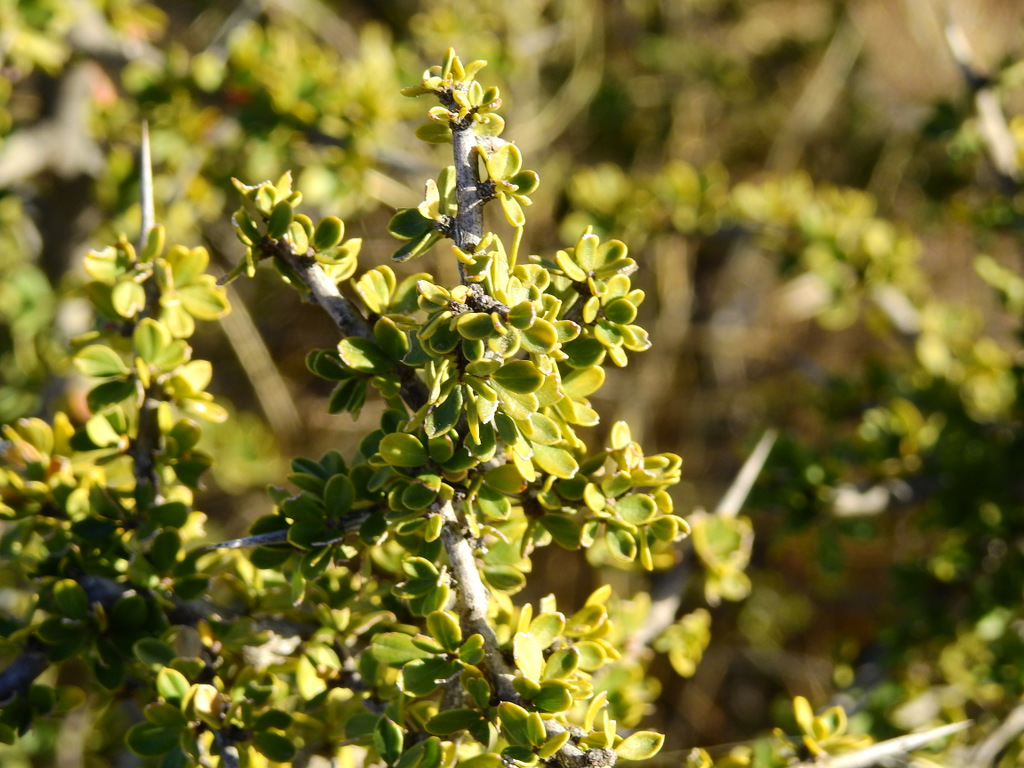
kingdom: Plantae
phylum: Tracheophyta
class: Magnoliopsida
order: Rosales
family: Rhamnaceae
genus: Condalia
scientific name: Condalia microphylla
